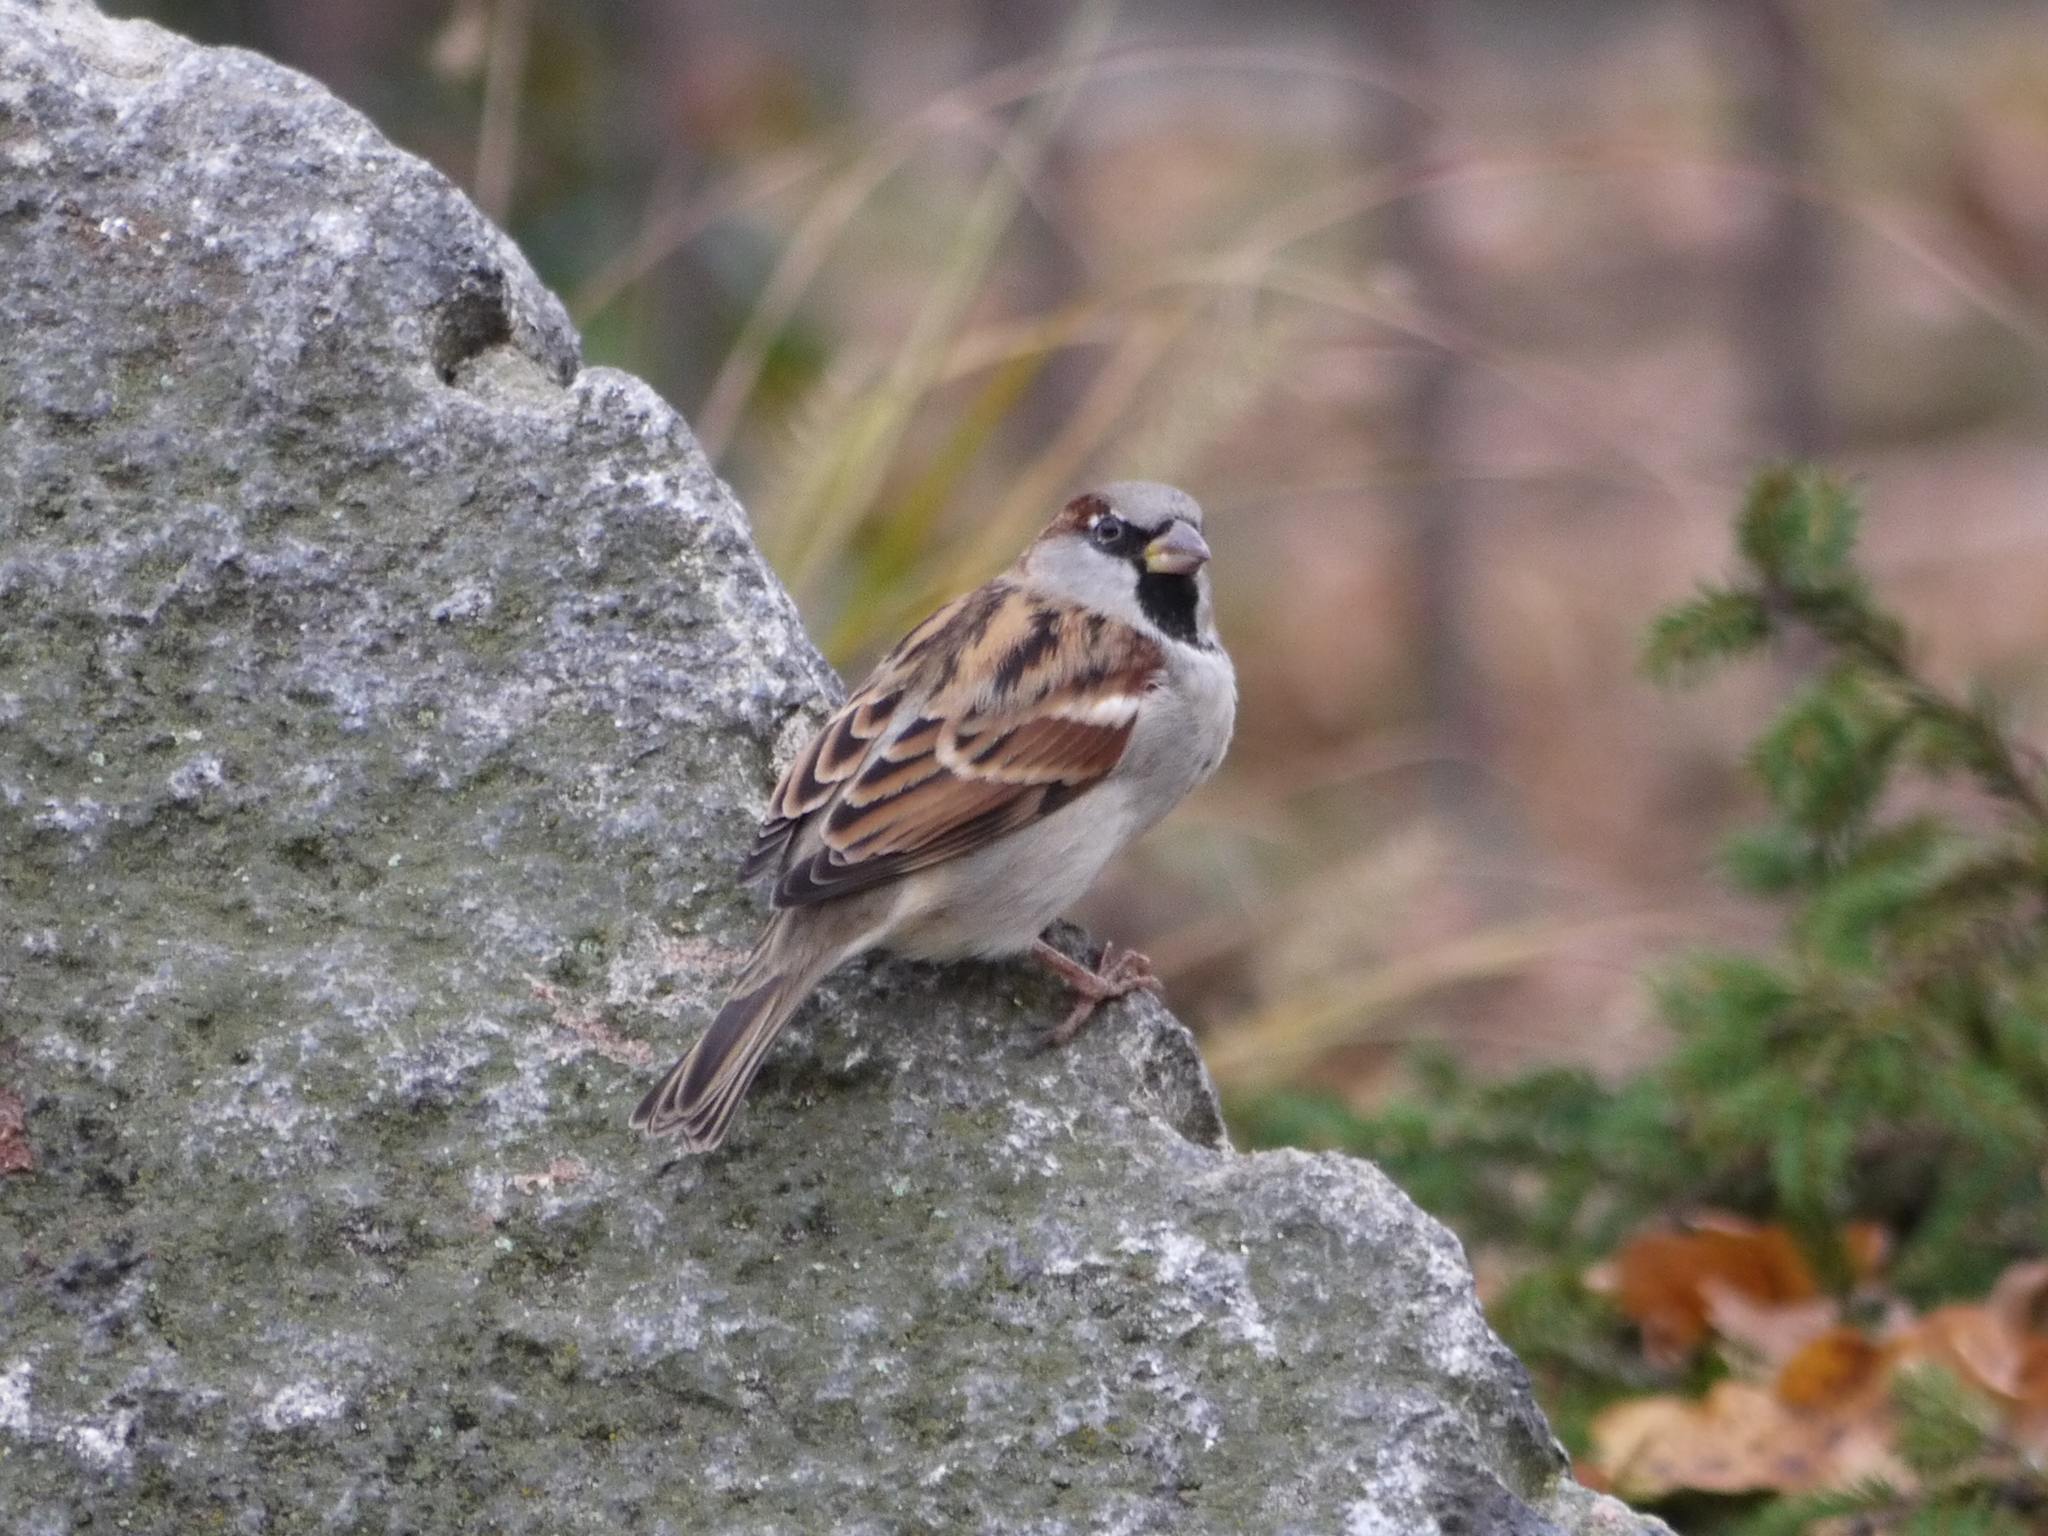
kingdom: Animalia
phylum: Chordata
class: Aves
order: Passeriformes
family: Passeridae
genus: Passer
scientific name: Passer domesticus
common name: House sparrow
